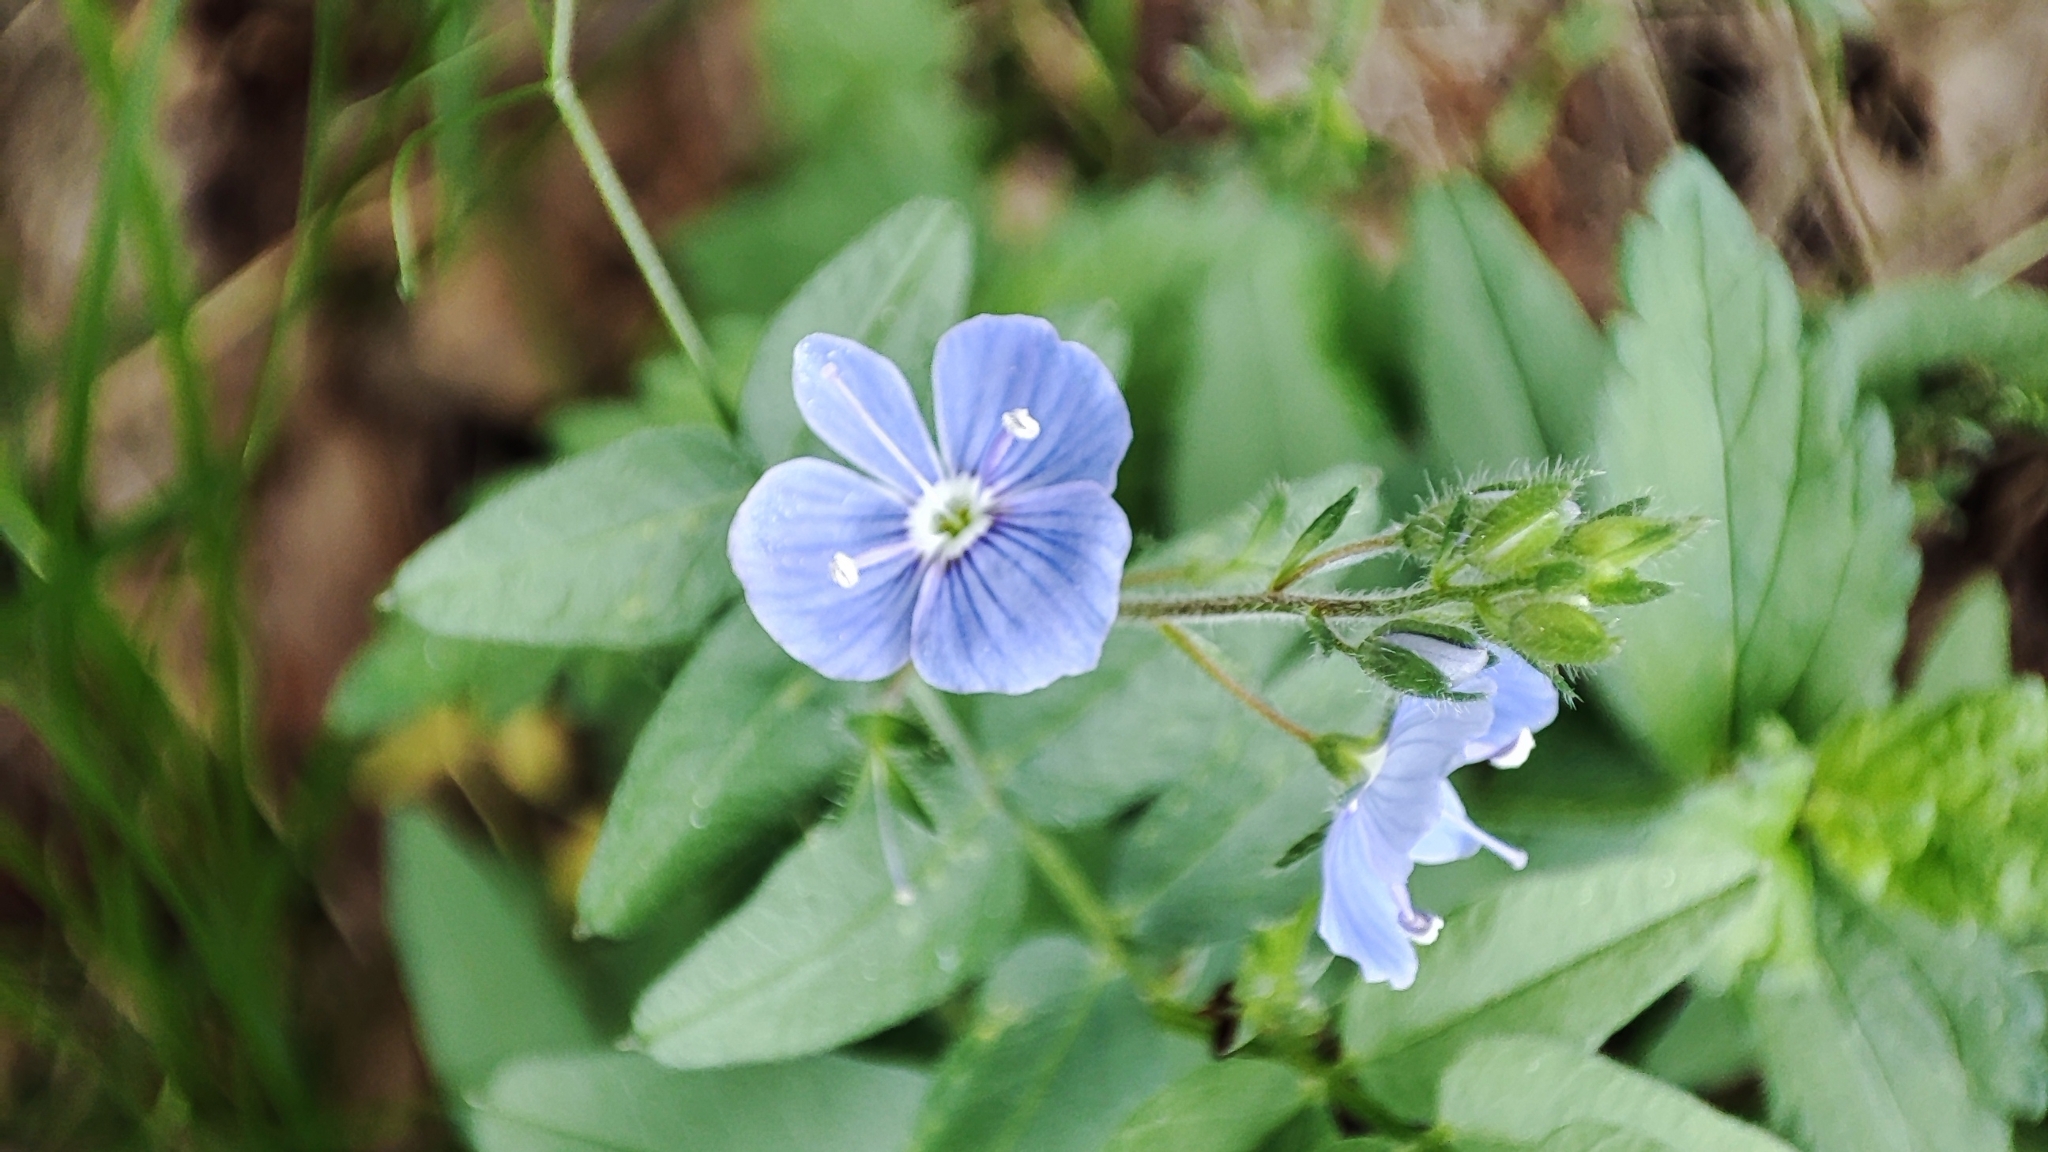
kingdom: Plantae
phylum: Tracheophyta
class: Magnoliopsida
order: Lamiales
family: Plantaginaceae
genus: Veronica
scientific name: Veronica chamaedrys
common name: Germander speedwell
